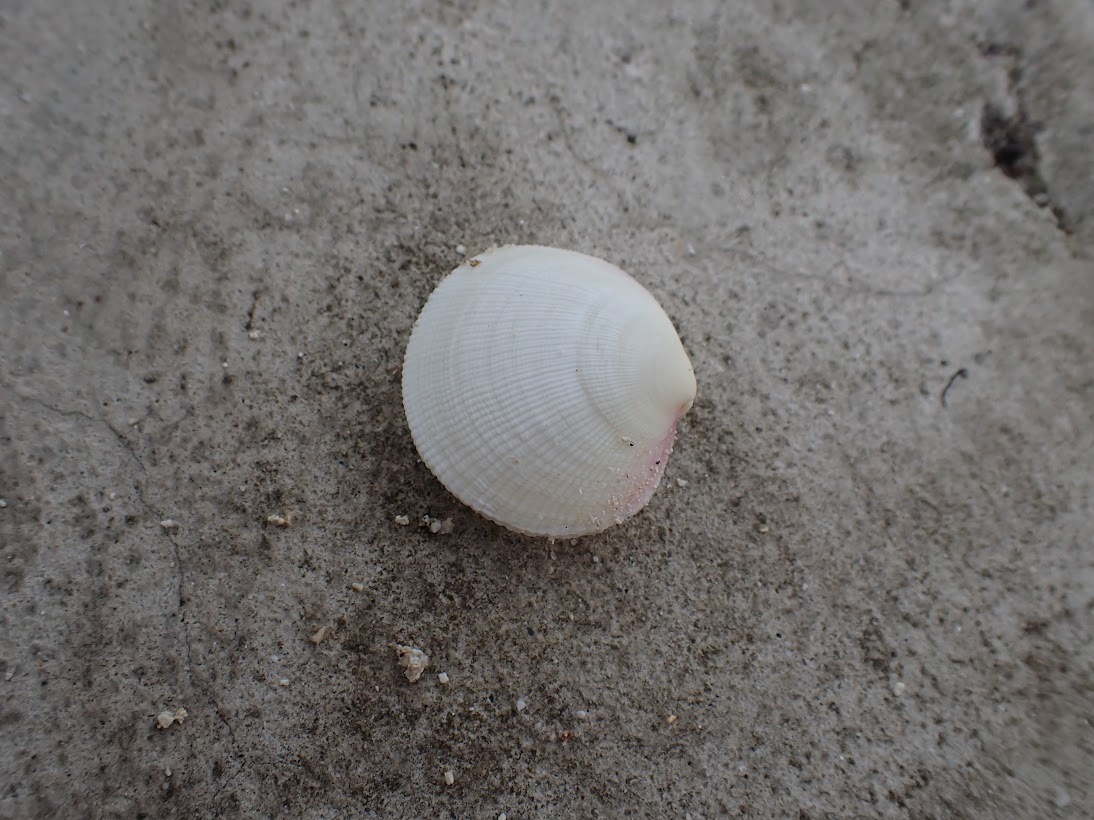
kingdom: Animalia
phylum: Mollusca
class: Bivalvia
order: Lucinida
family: Lucinidae
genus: Codakia
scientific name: Codakia orbicularis
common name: Tiger lucine
